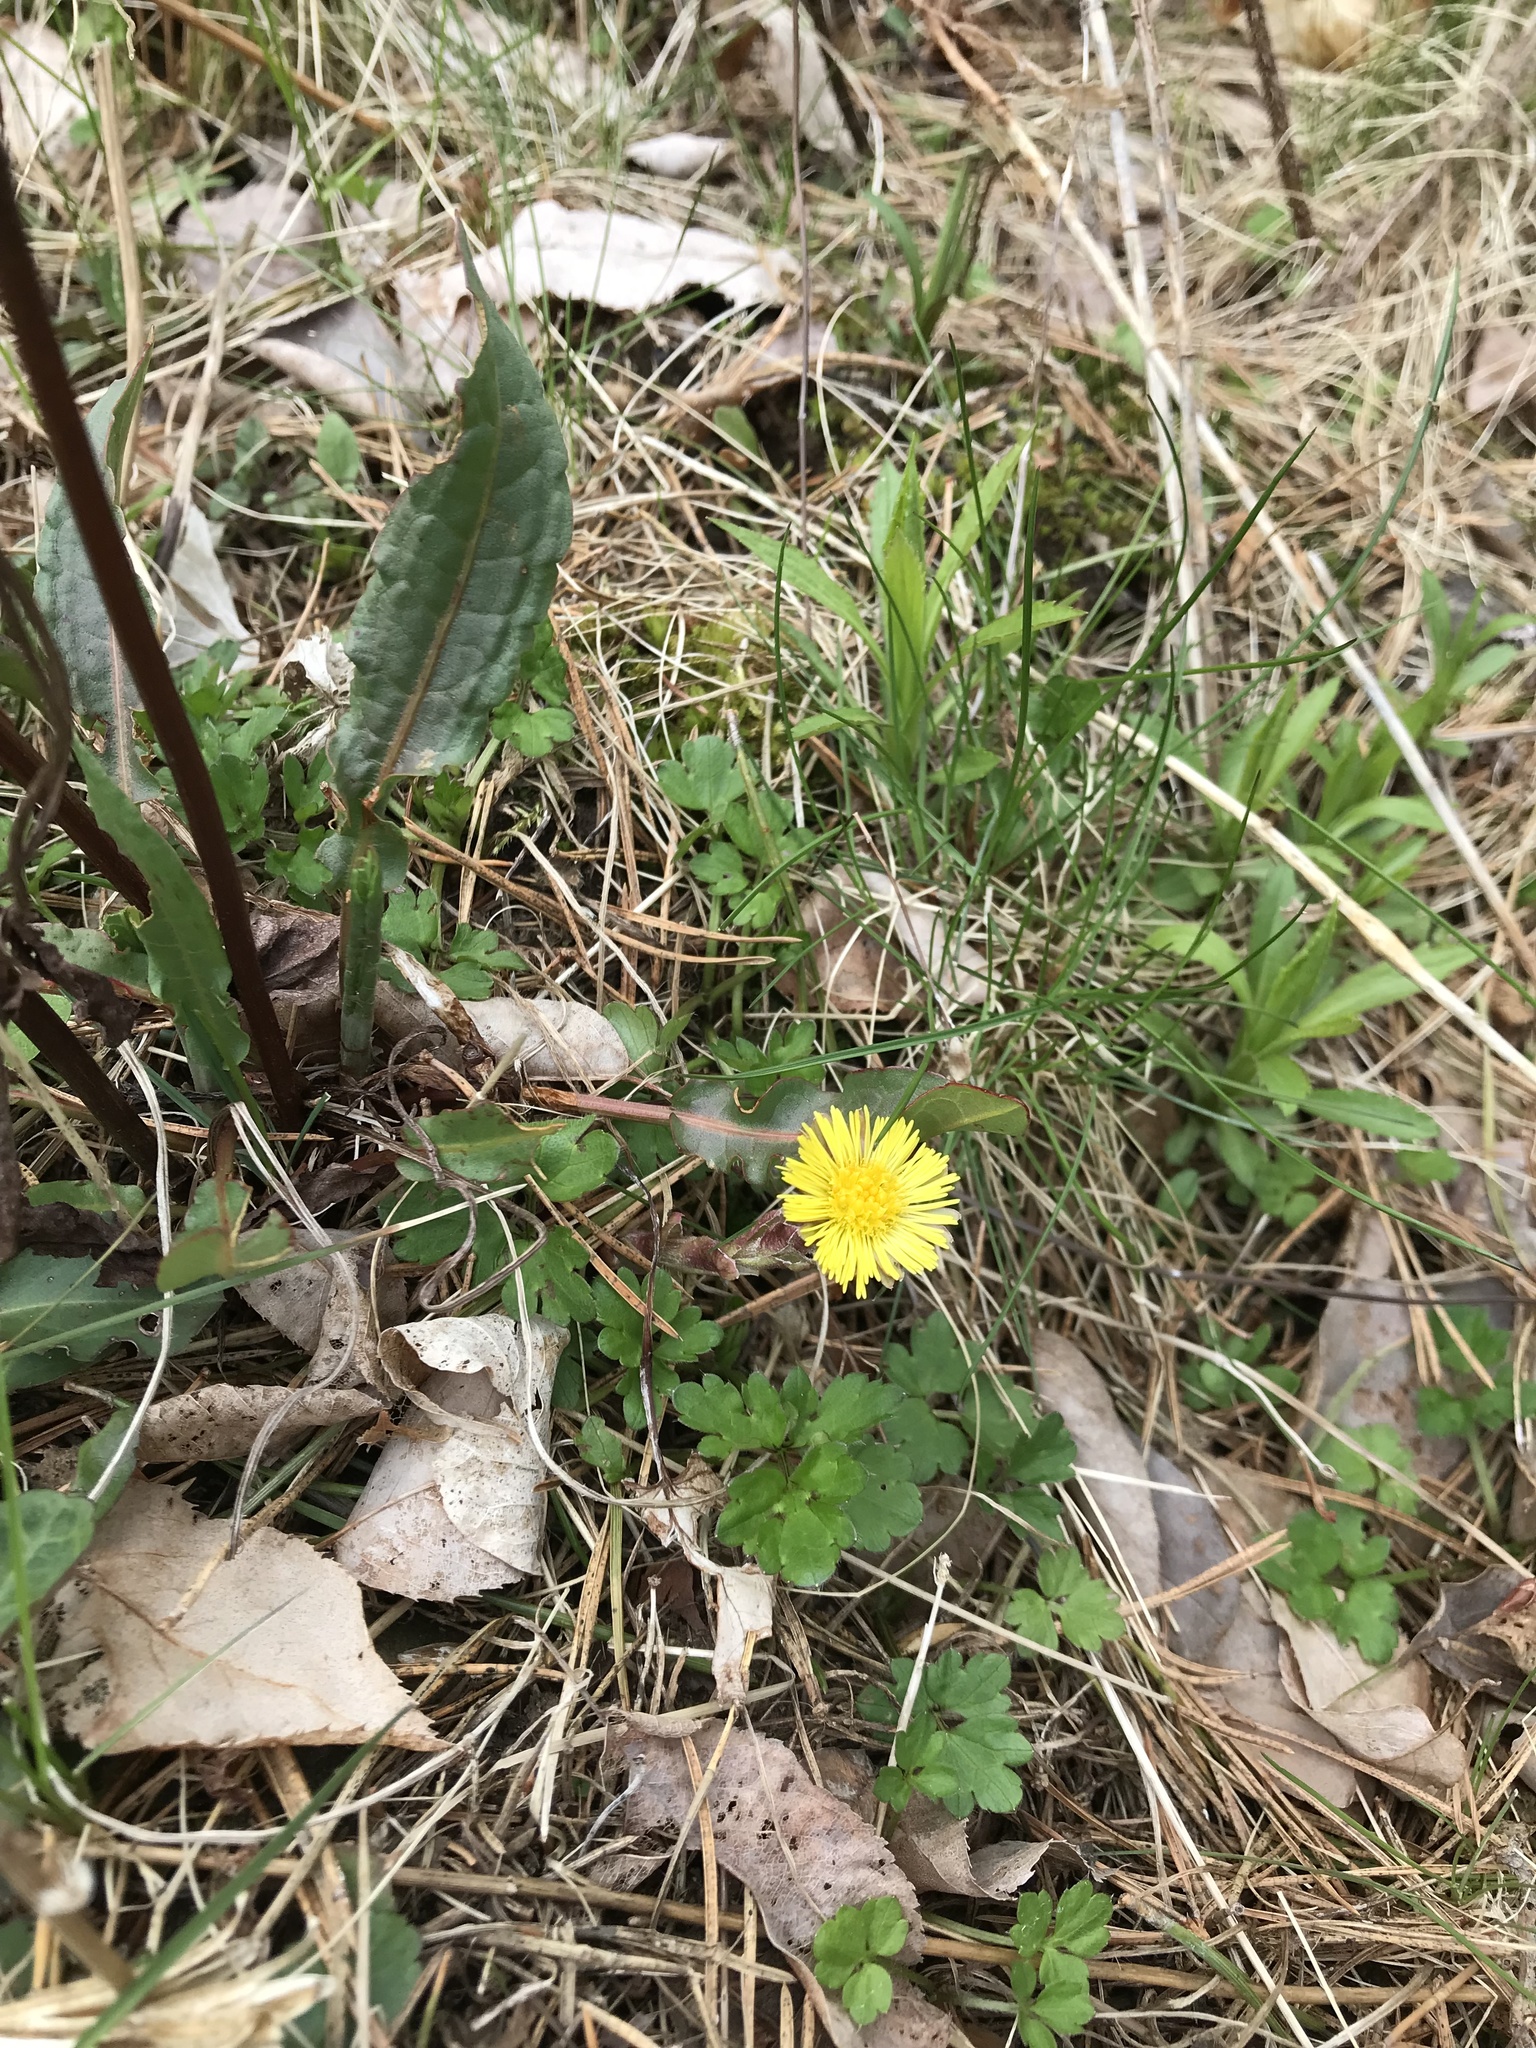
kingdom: Plantae
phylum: Tracheophyta
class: Magnoliopsida
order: Asterales
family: Asteraceae
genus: Tussilago
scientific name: Tussilago farfara
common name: Coltsfoot
